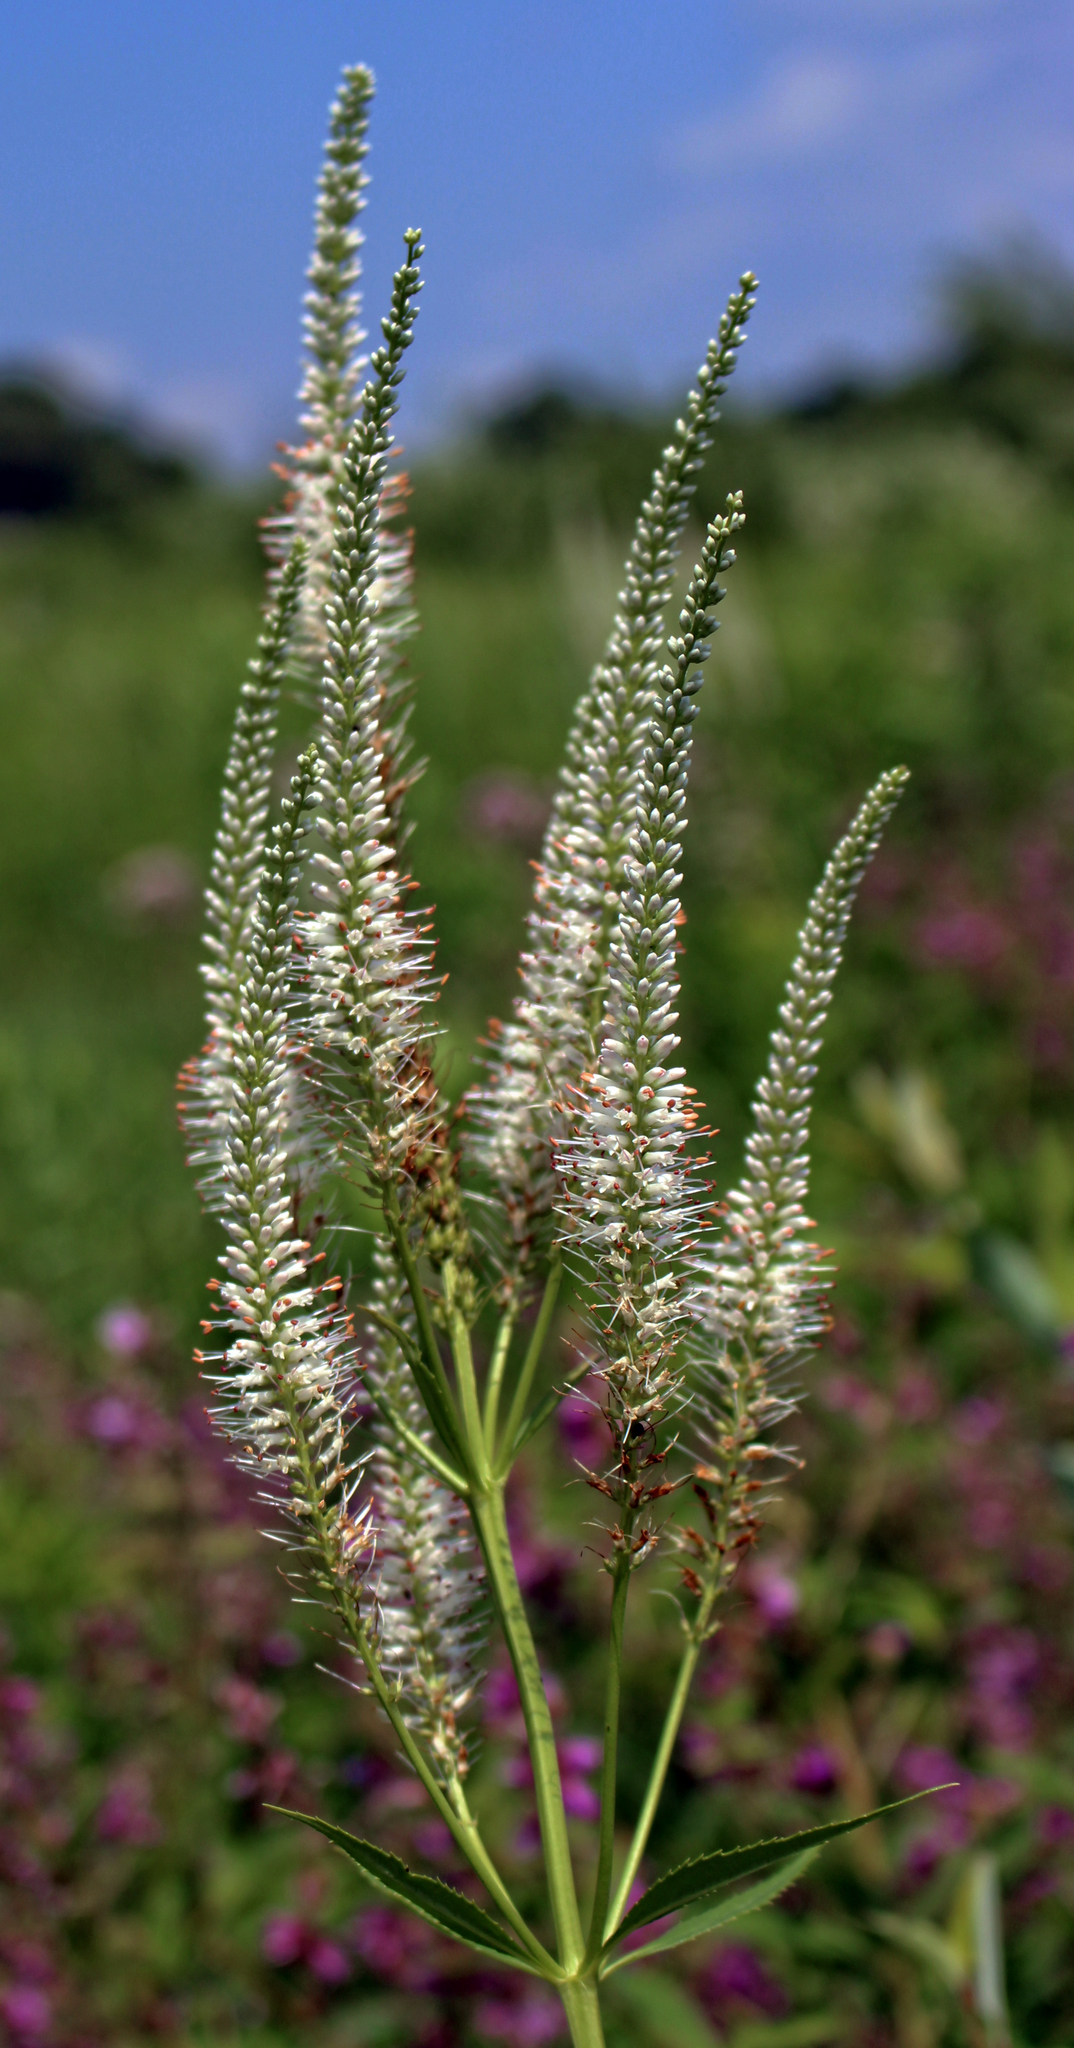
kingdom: Plantae
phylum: Tracheophyta
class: Magnoliopsida
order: Lamiales
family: Plantaginaceae
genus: Veronicastrum
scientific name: Veronicastrum virginicum
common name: Blackroot
